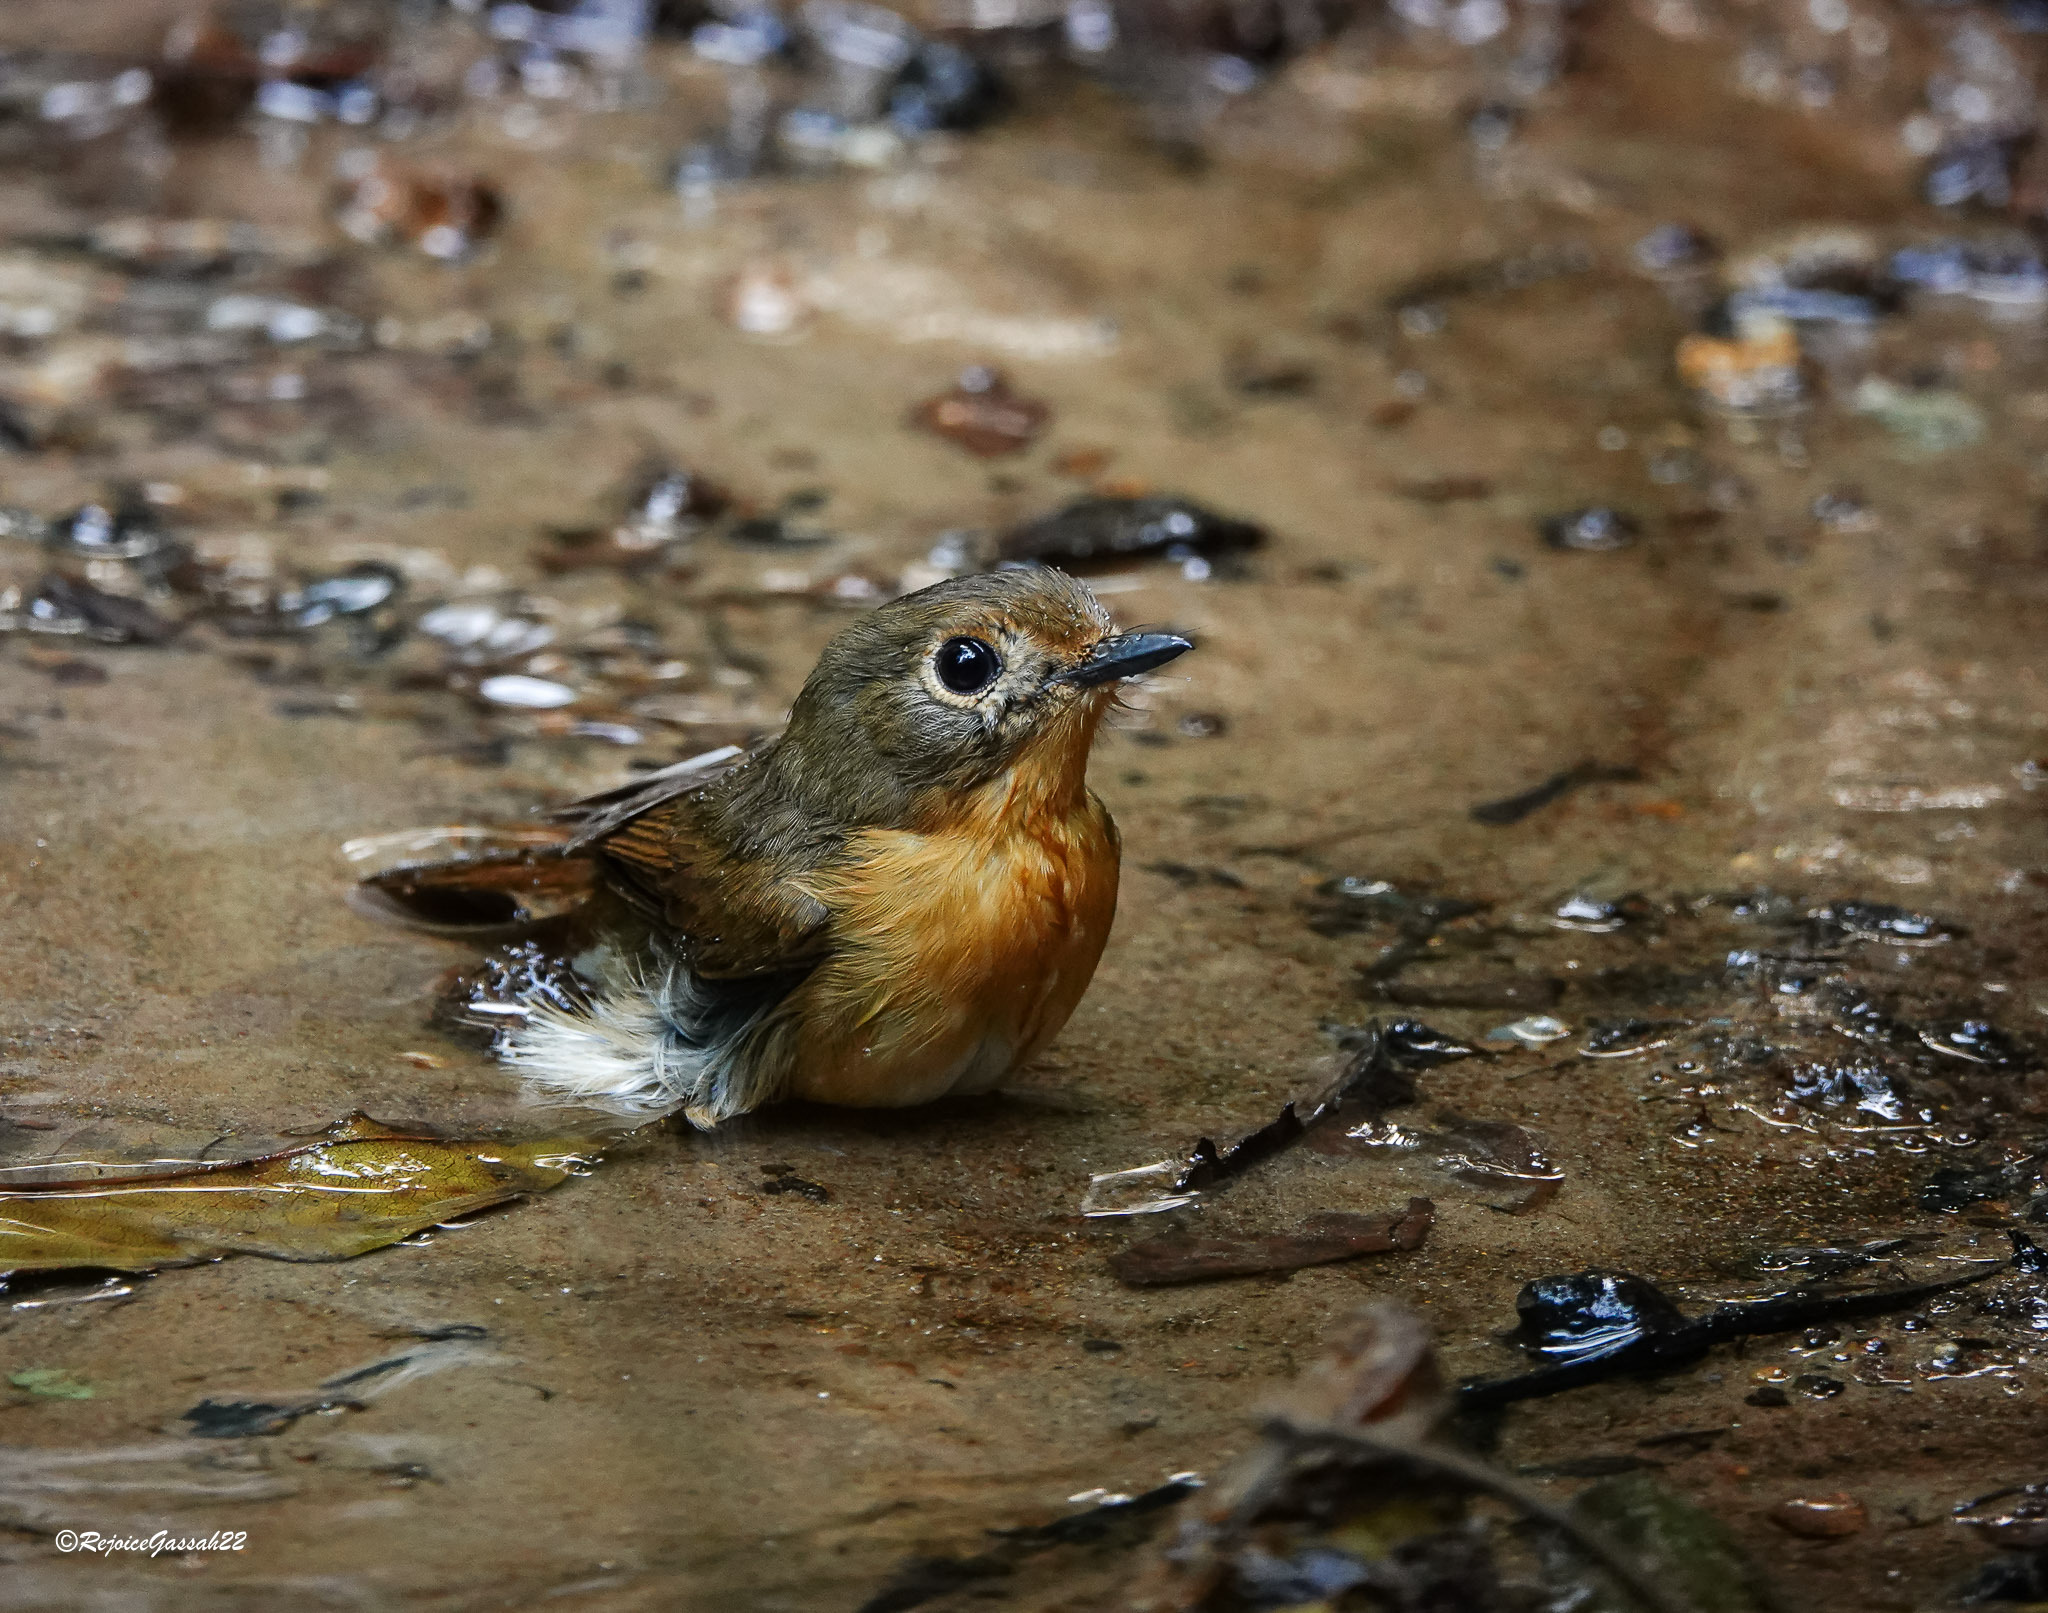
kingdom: Animalia
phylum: Chordata
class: Aves
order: Passeriformes
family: Muscicapidae
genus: Cyornis
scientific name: Cyornis whitei
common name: Hill blue flycatcher
